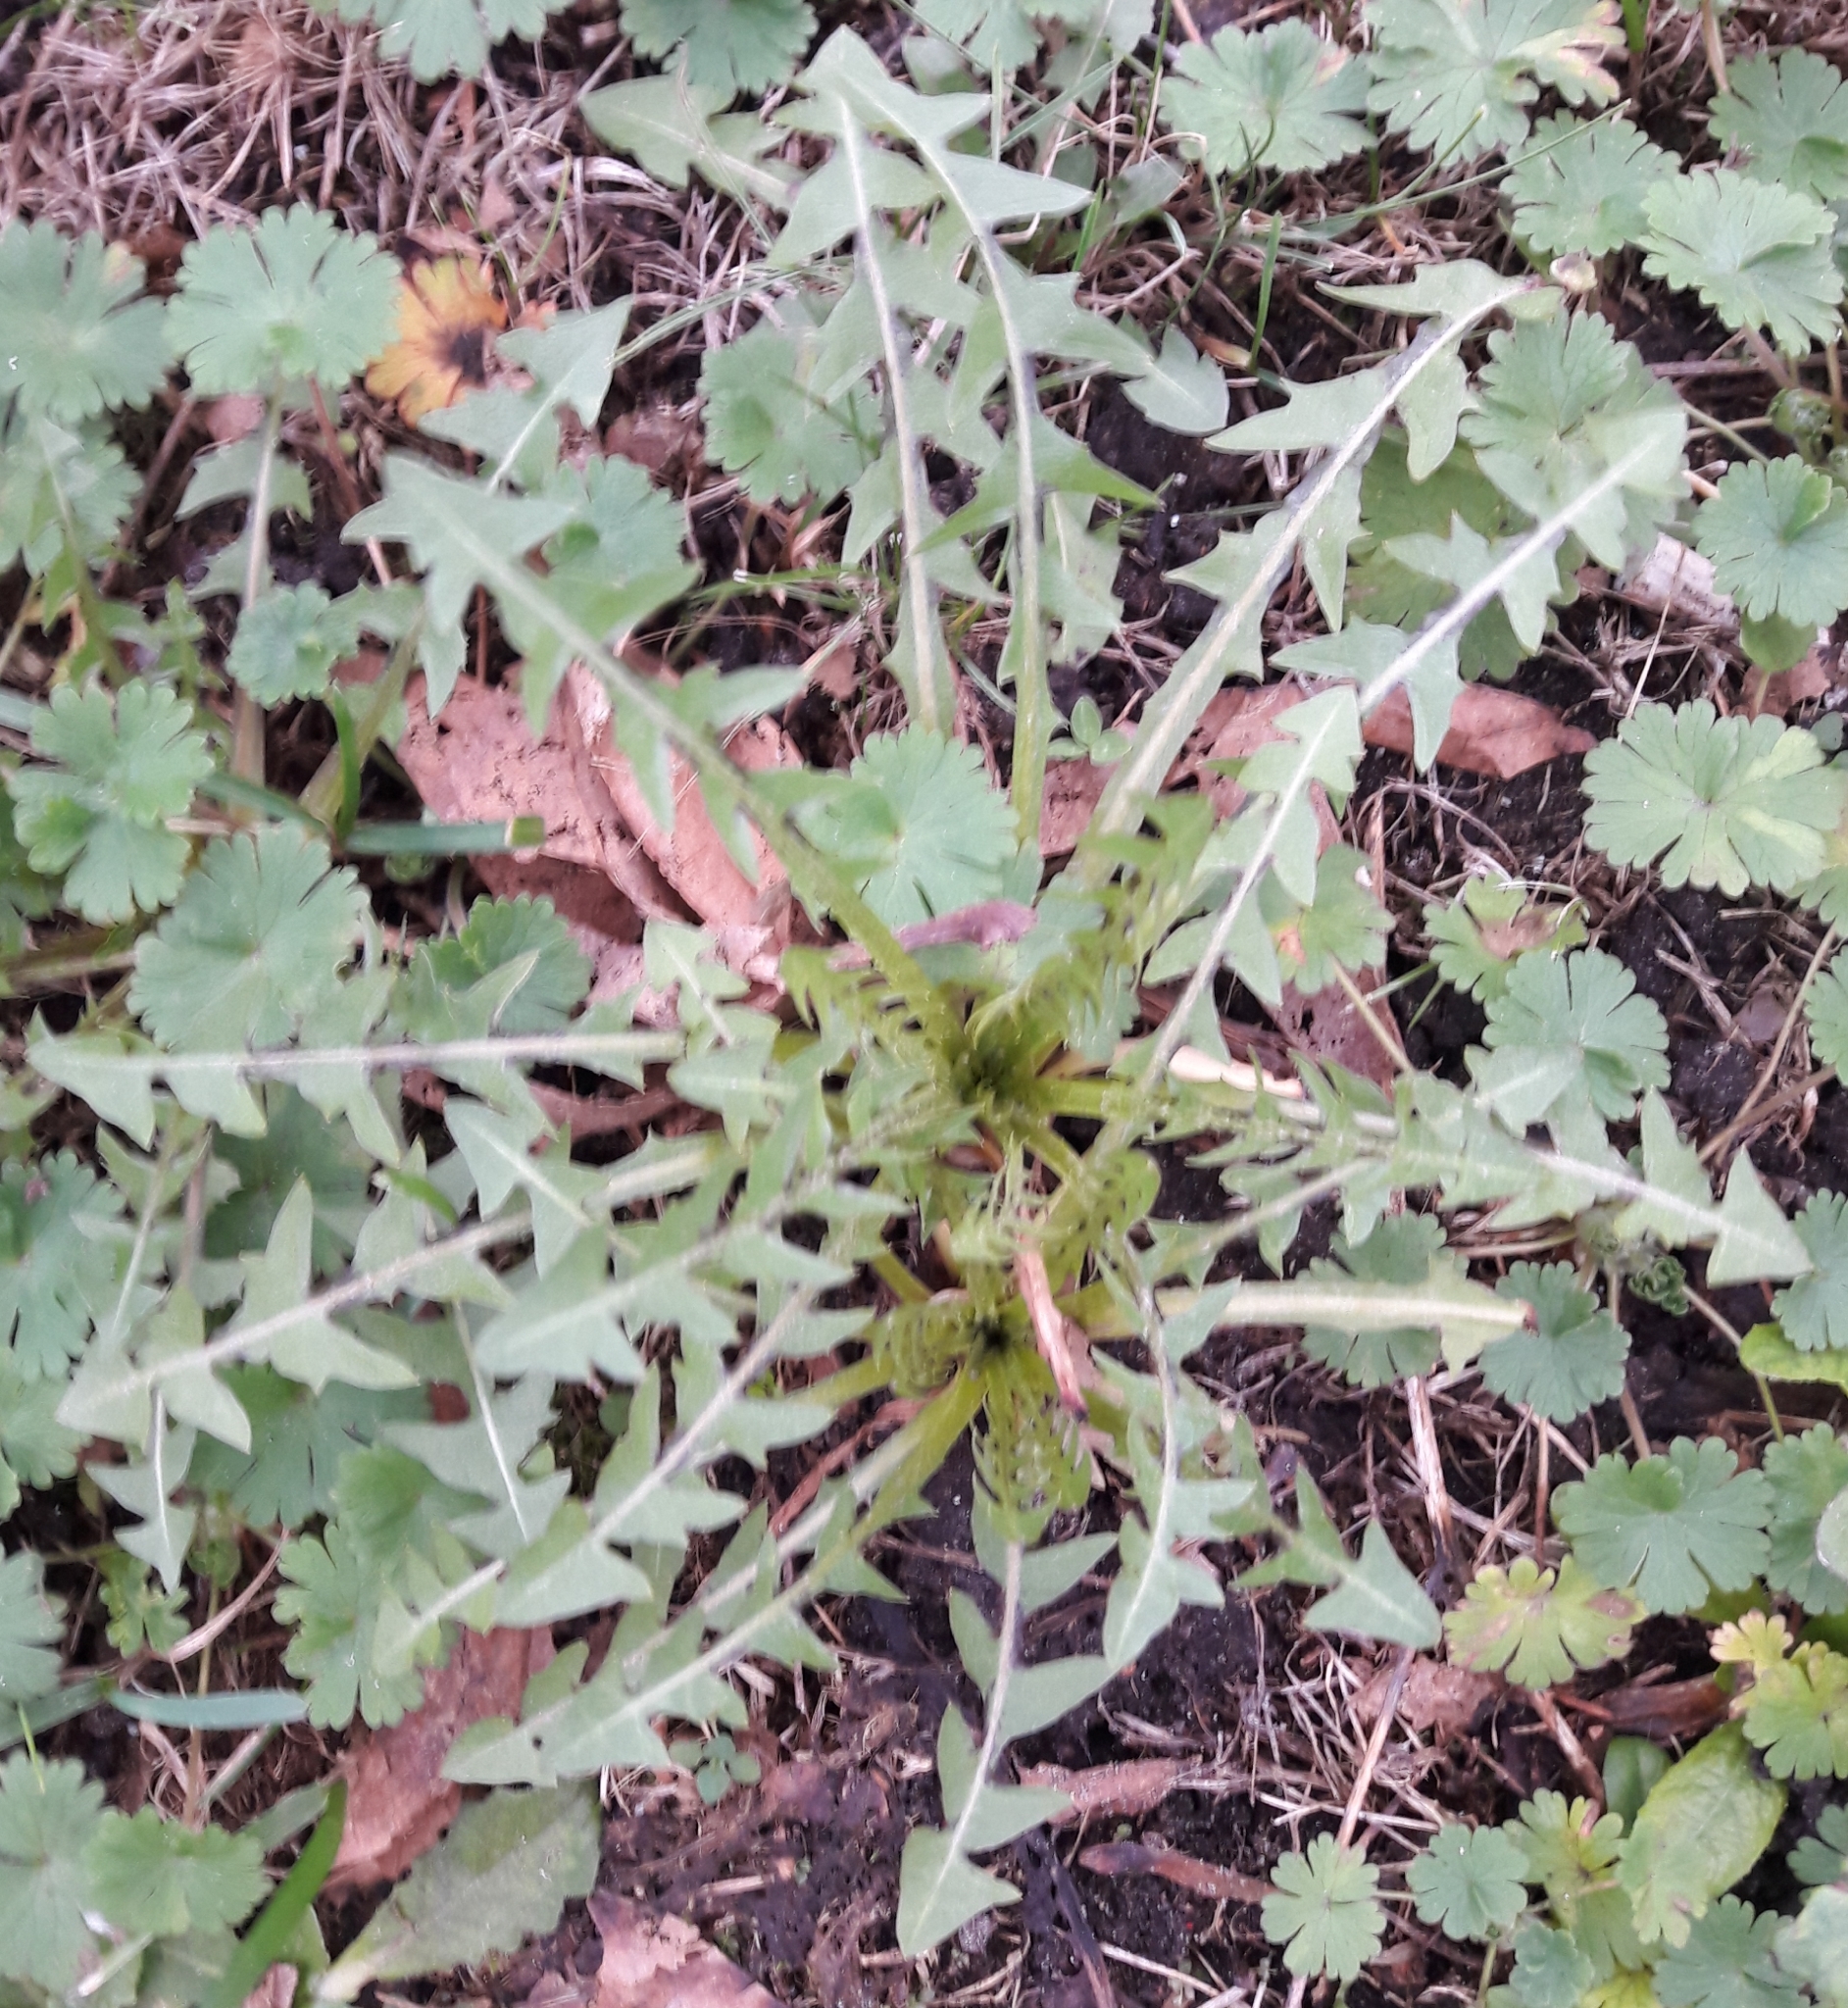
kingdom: Plantae
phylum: Tracheophyta
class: Magnoliopsida
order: Asterales
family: Asteraceae
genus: Taraxacum
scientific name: Taraxacum officinale
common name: Common dandelion
